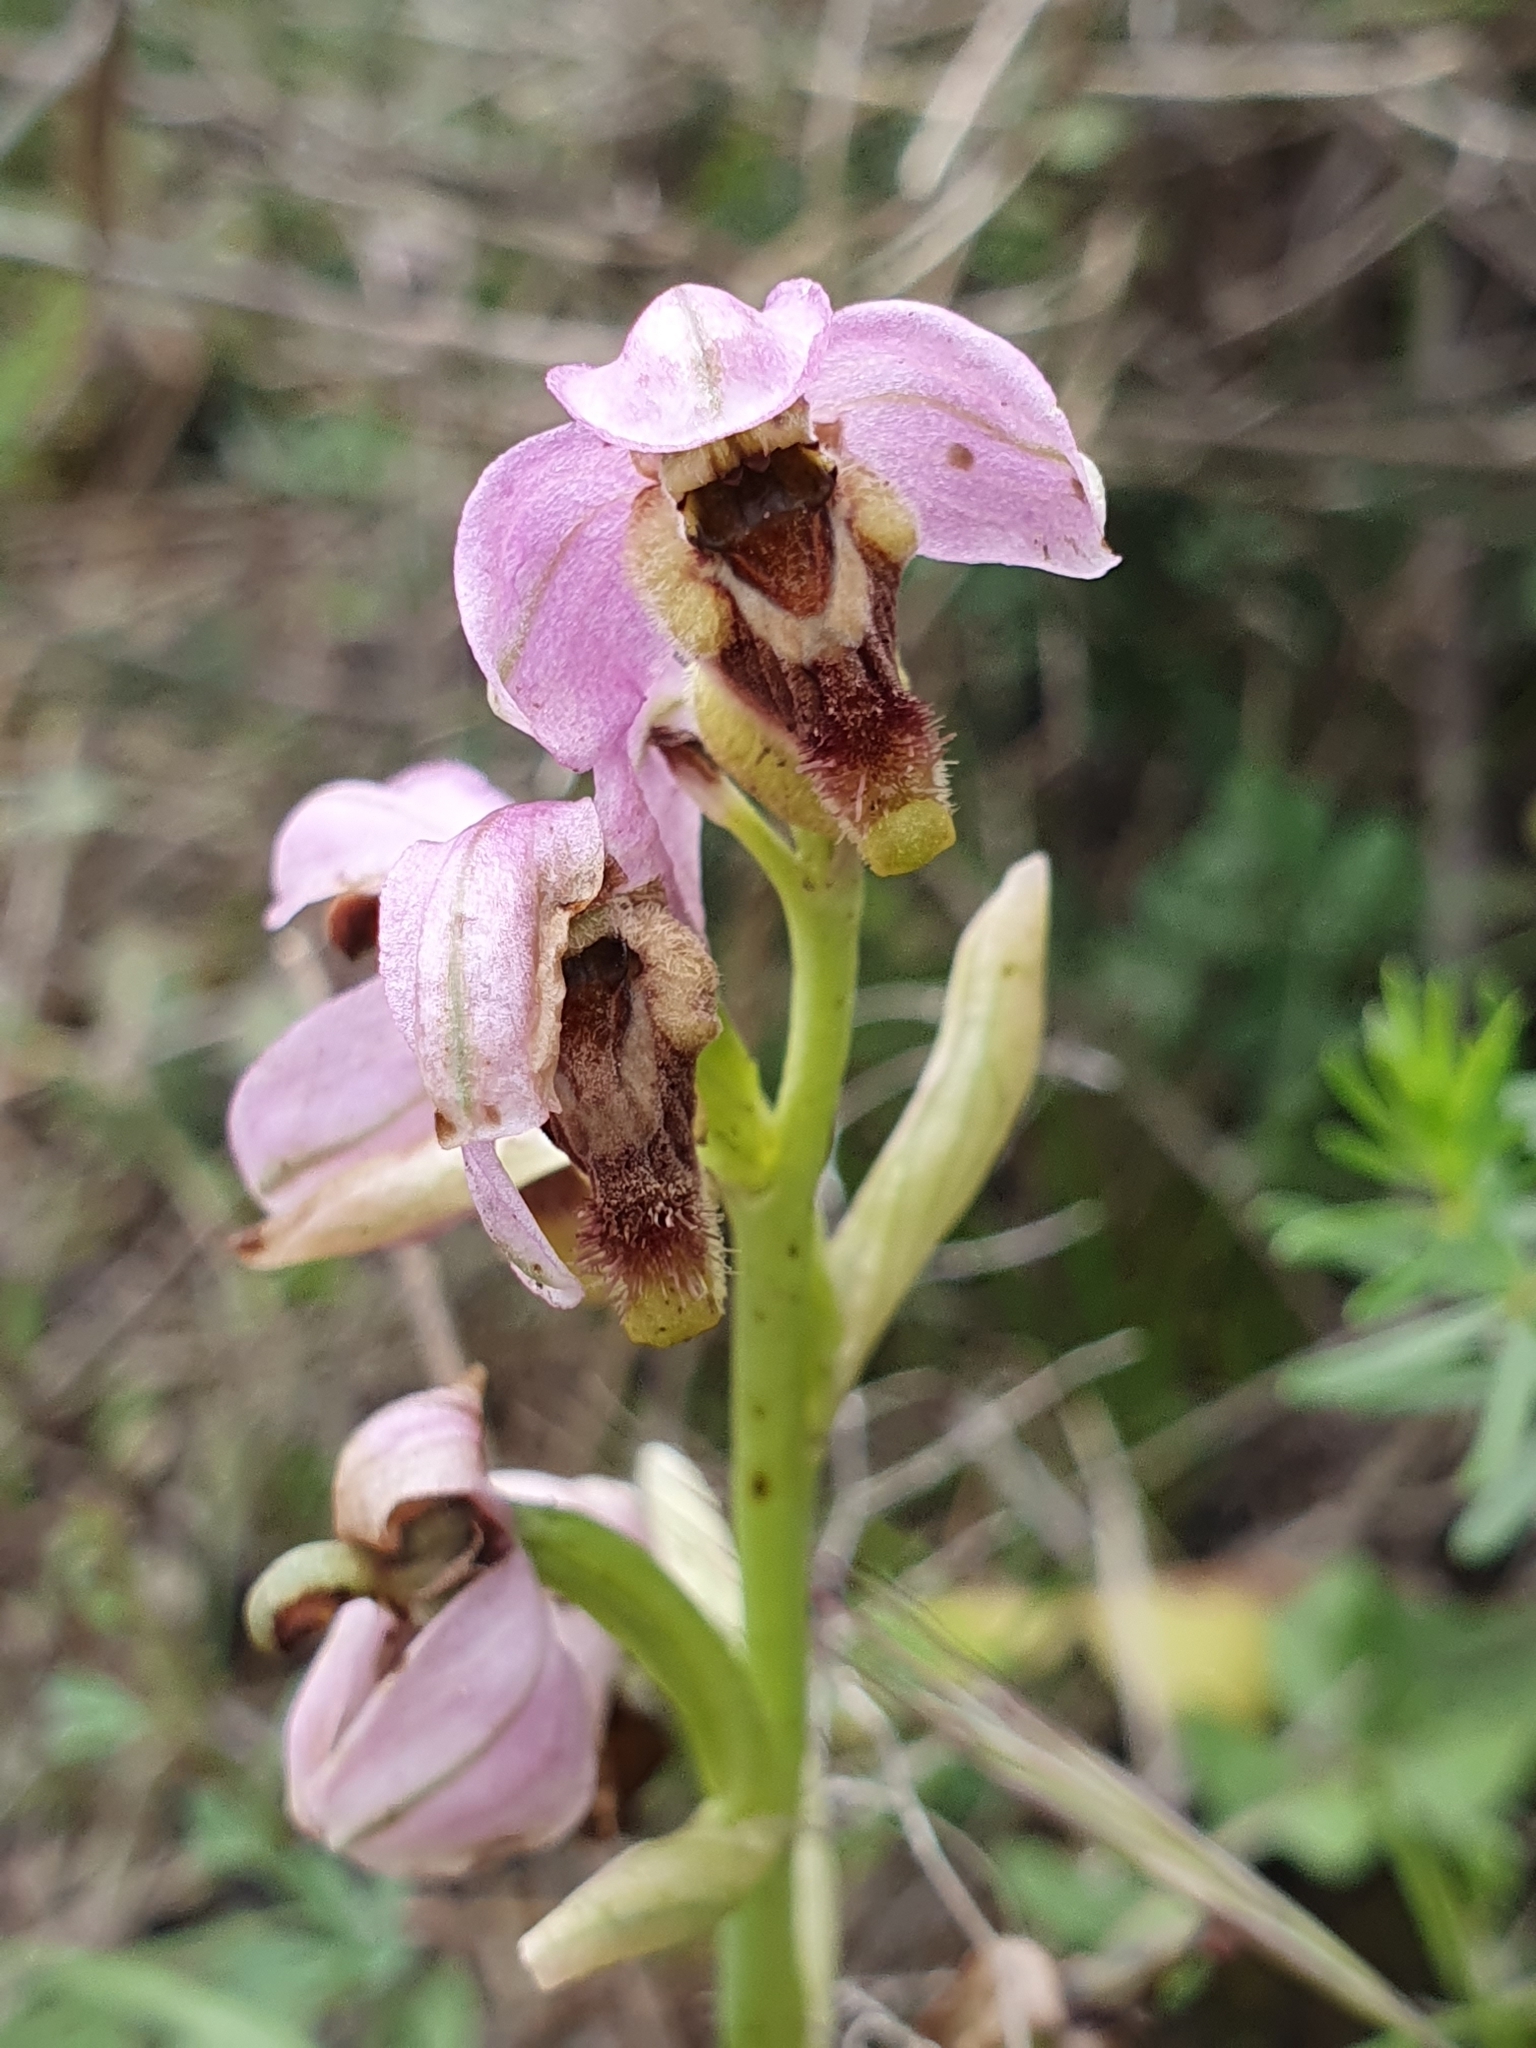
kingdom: Plantae
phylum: Tracheophyta
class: Liliopsida
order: Asparagales
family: Orchidaceae
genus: Ophrys
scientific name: Ophrys tenthredinifera
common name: Sawfly orchid
